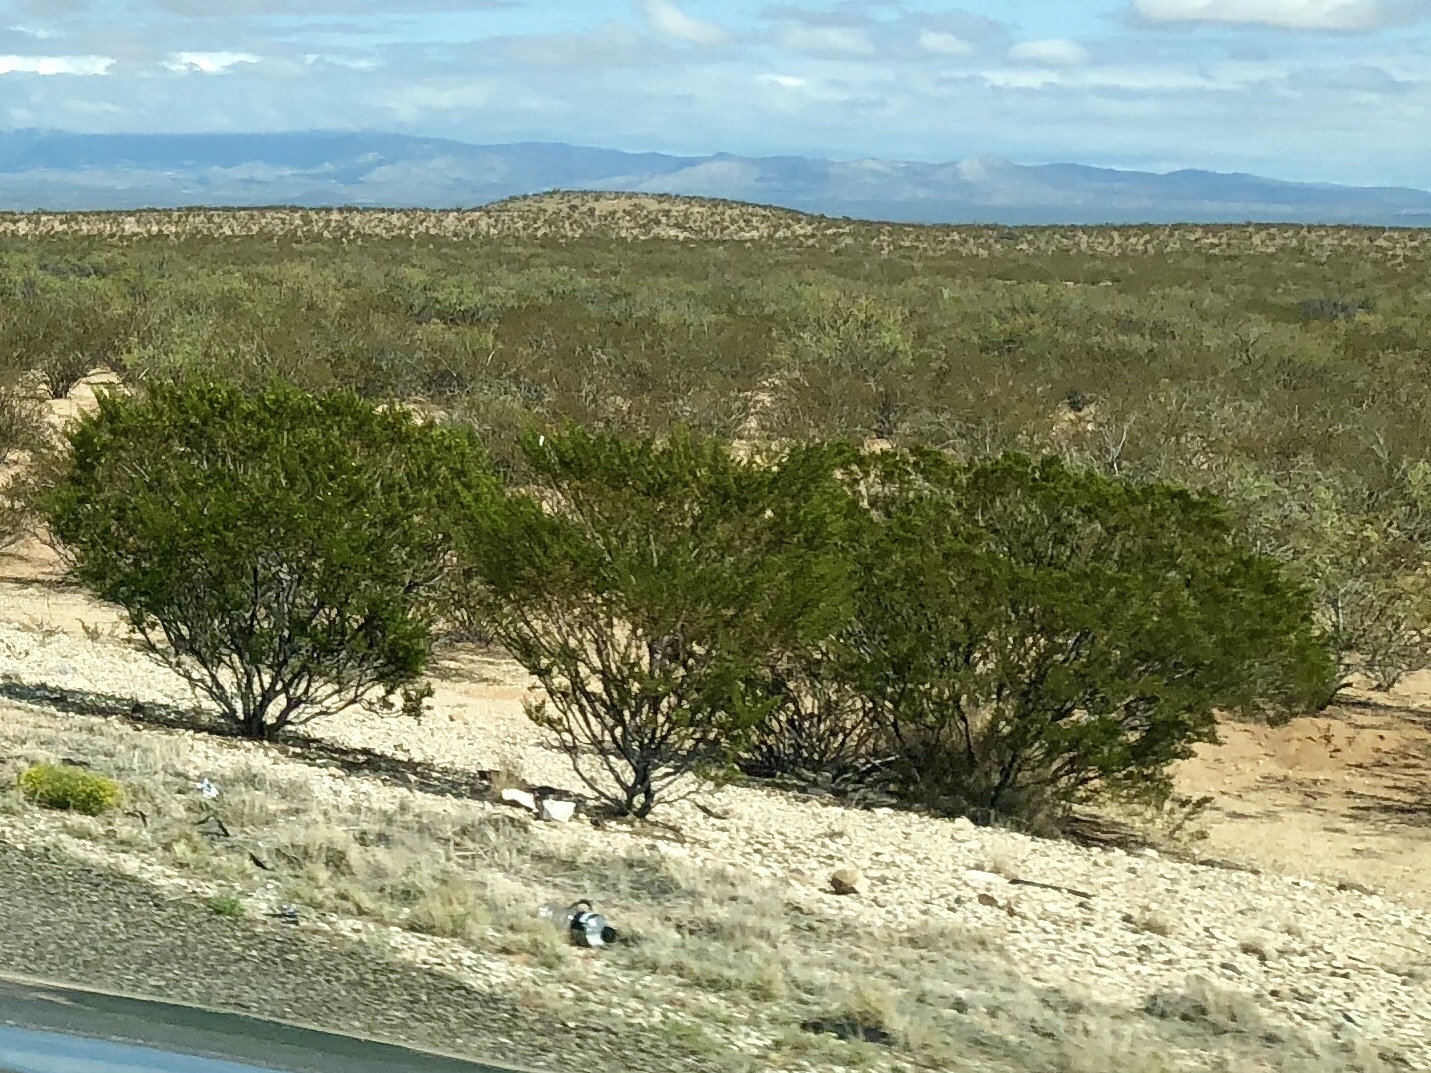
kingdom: Plantae
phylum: Tracheophyta
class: Magnoliopsida
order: Zygophyllales
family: Zygophyllaceae
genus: Larrea
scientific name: Larrea tridentata
